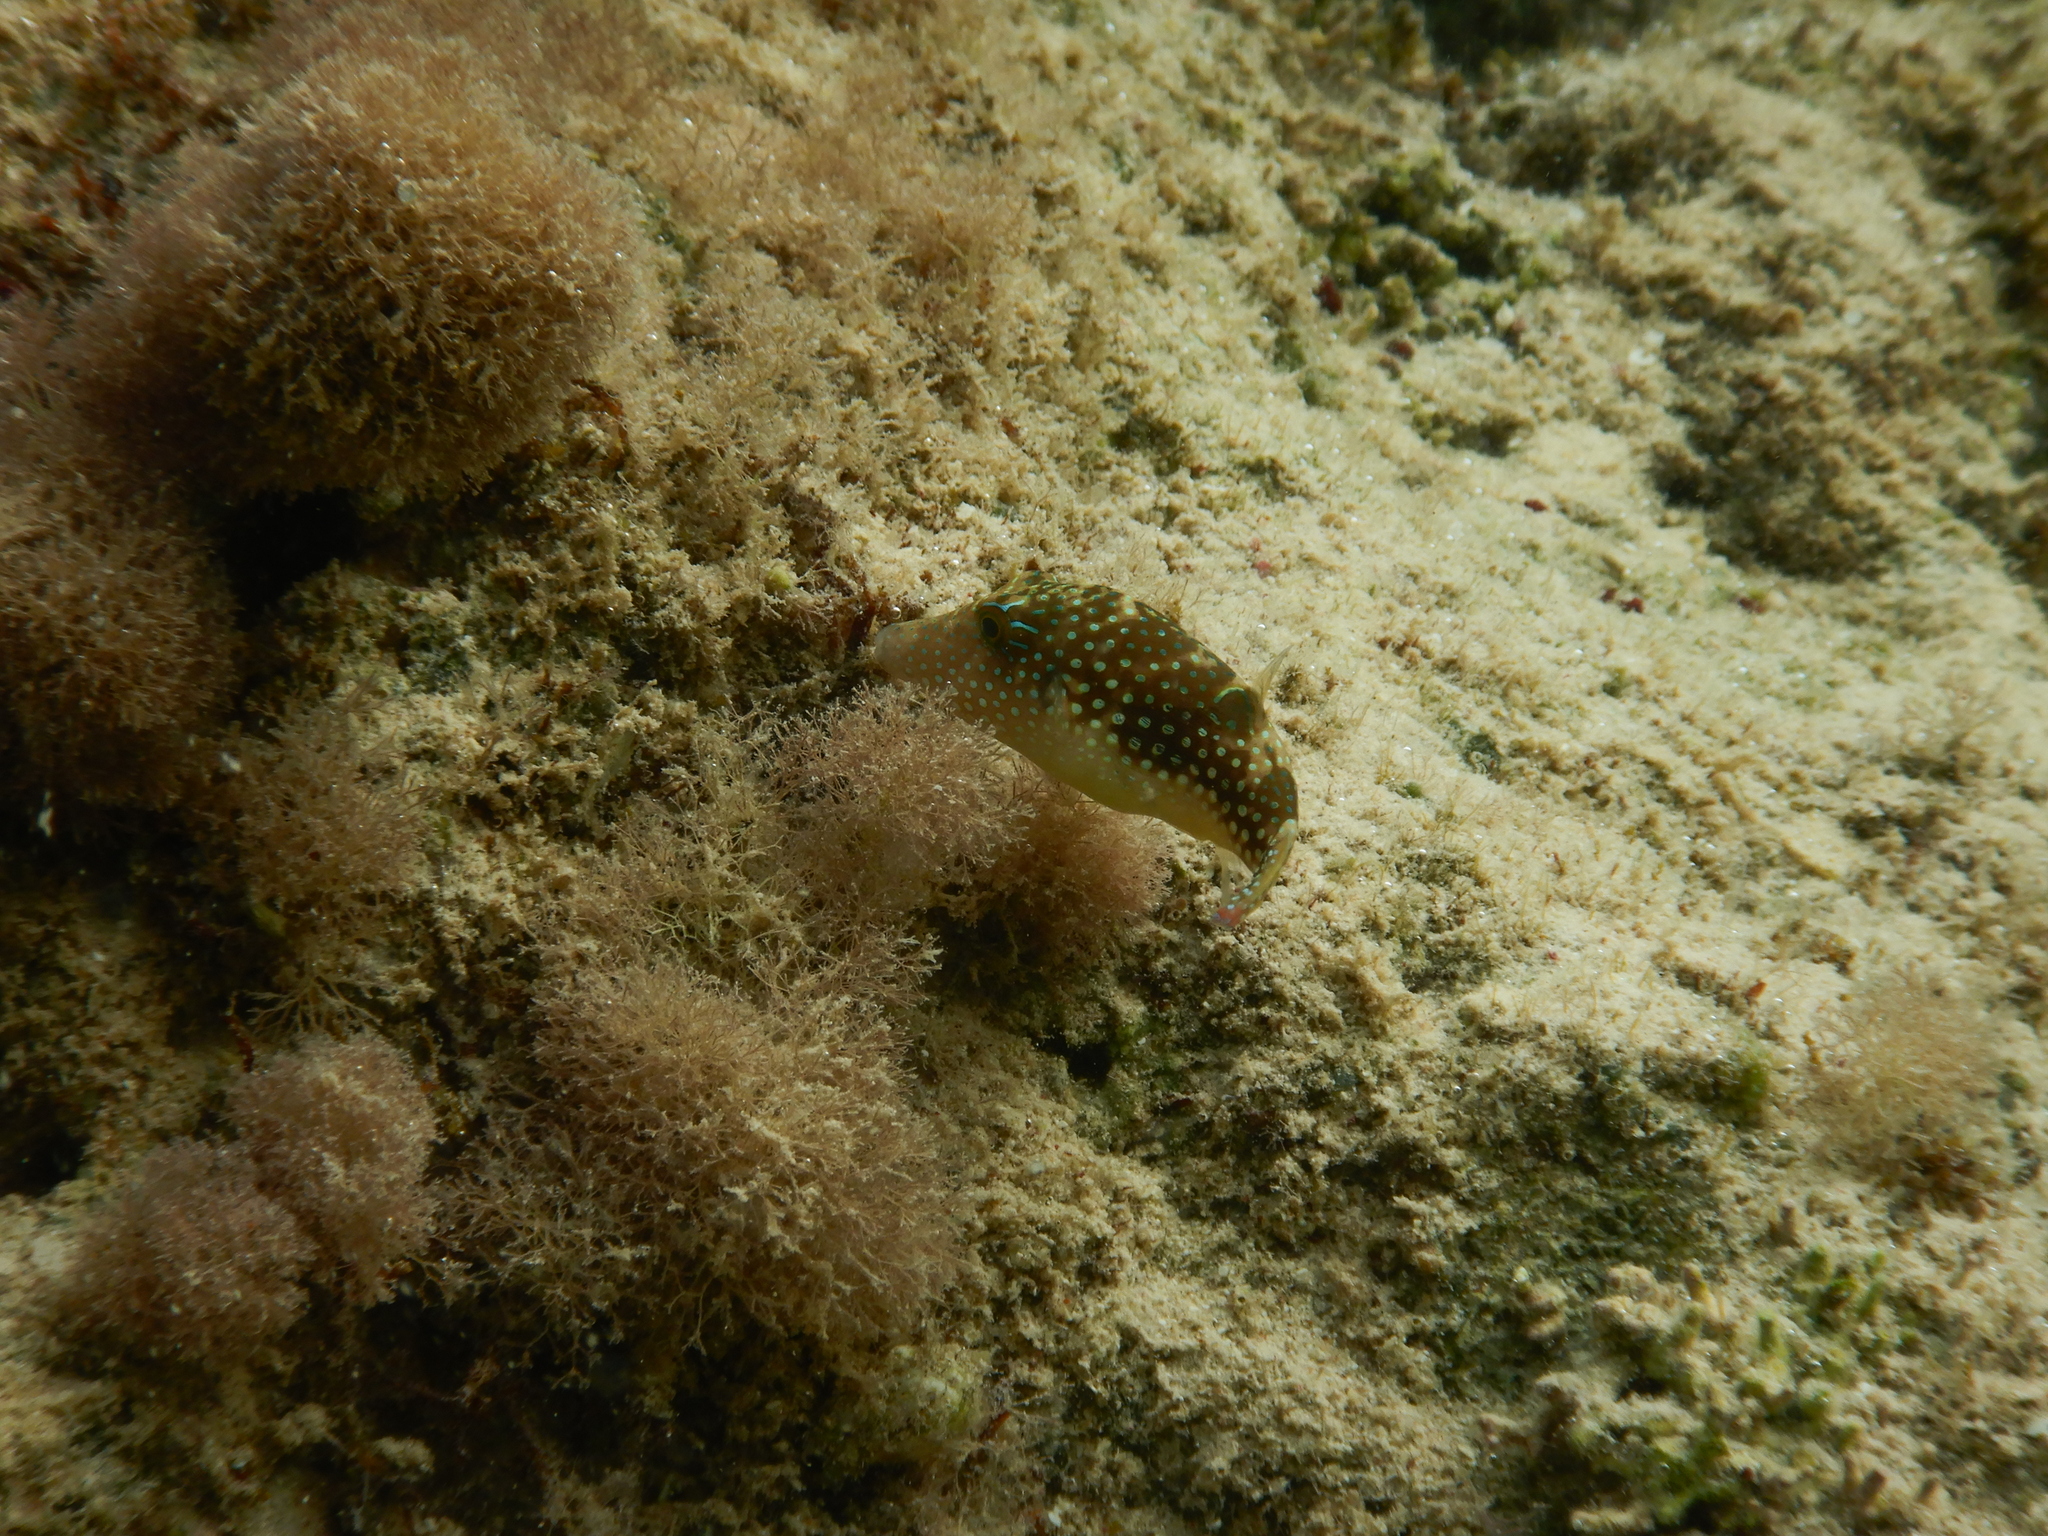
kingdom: Animalia
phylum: Chordata
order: Tetraodontiformes
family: Tetraodontidae
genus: Canthigaster
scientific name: Canthigaster margaritata
